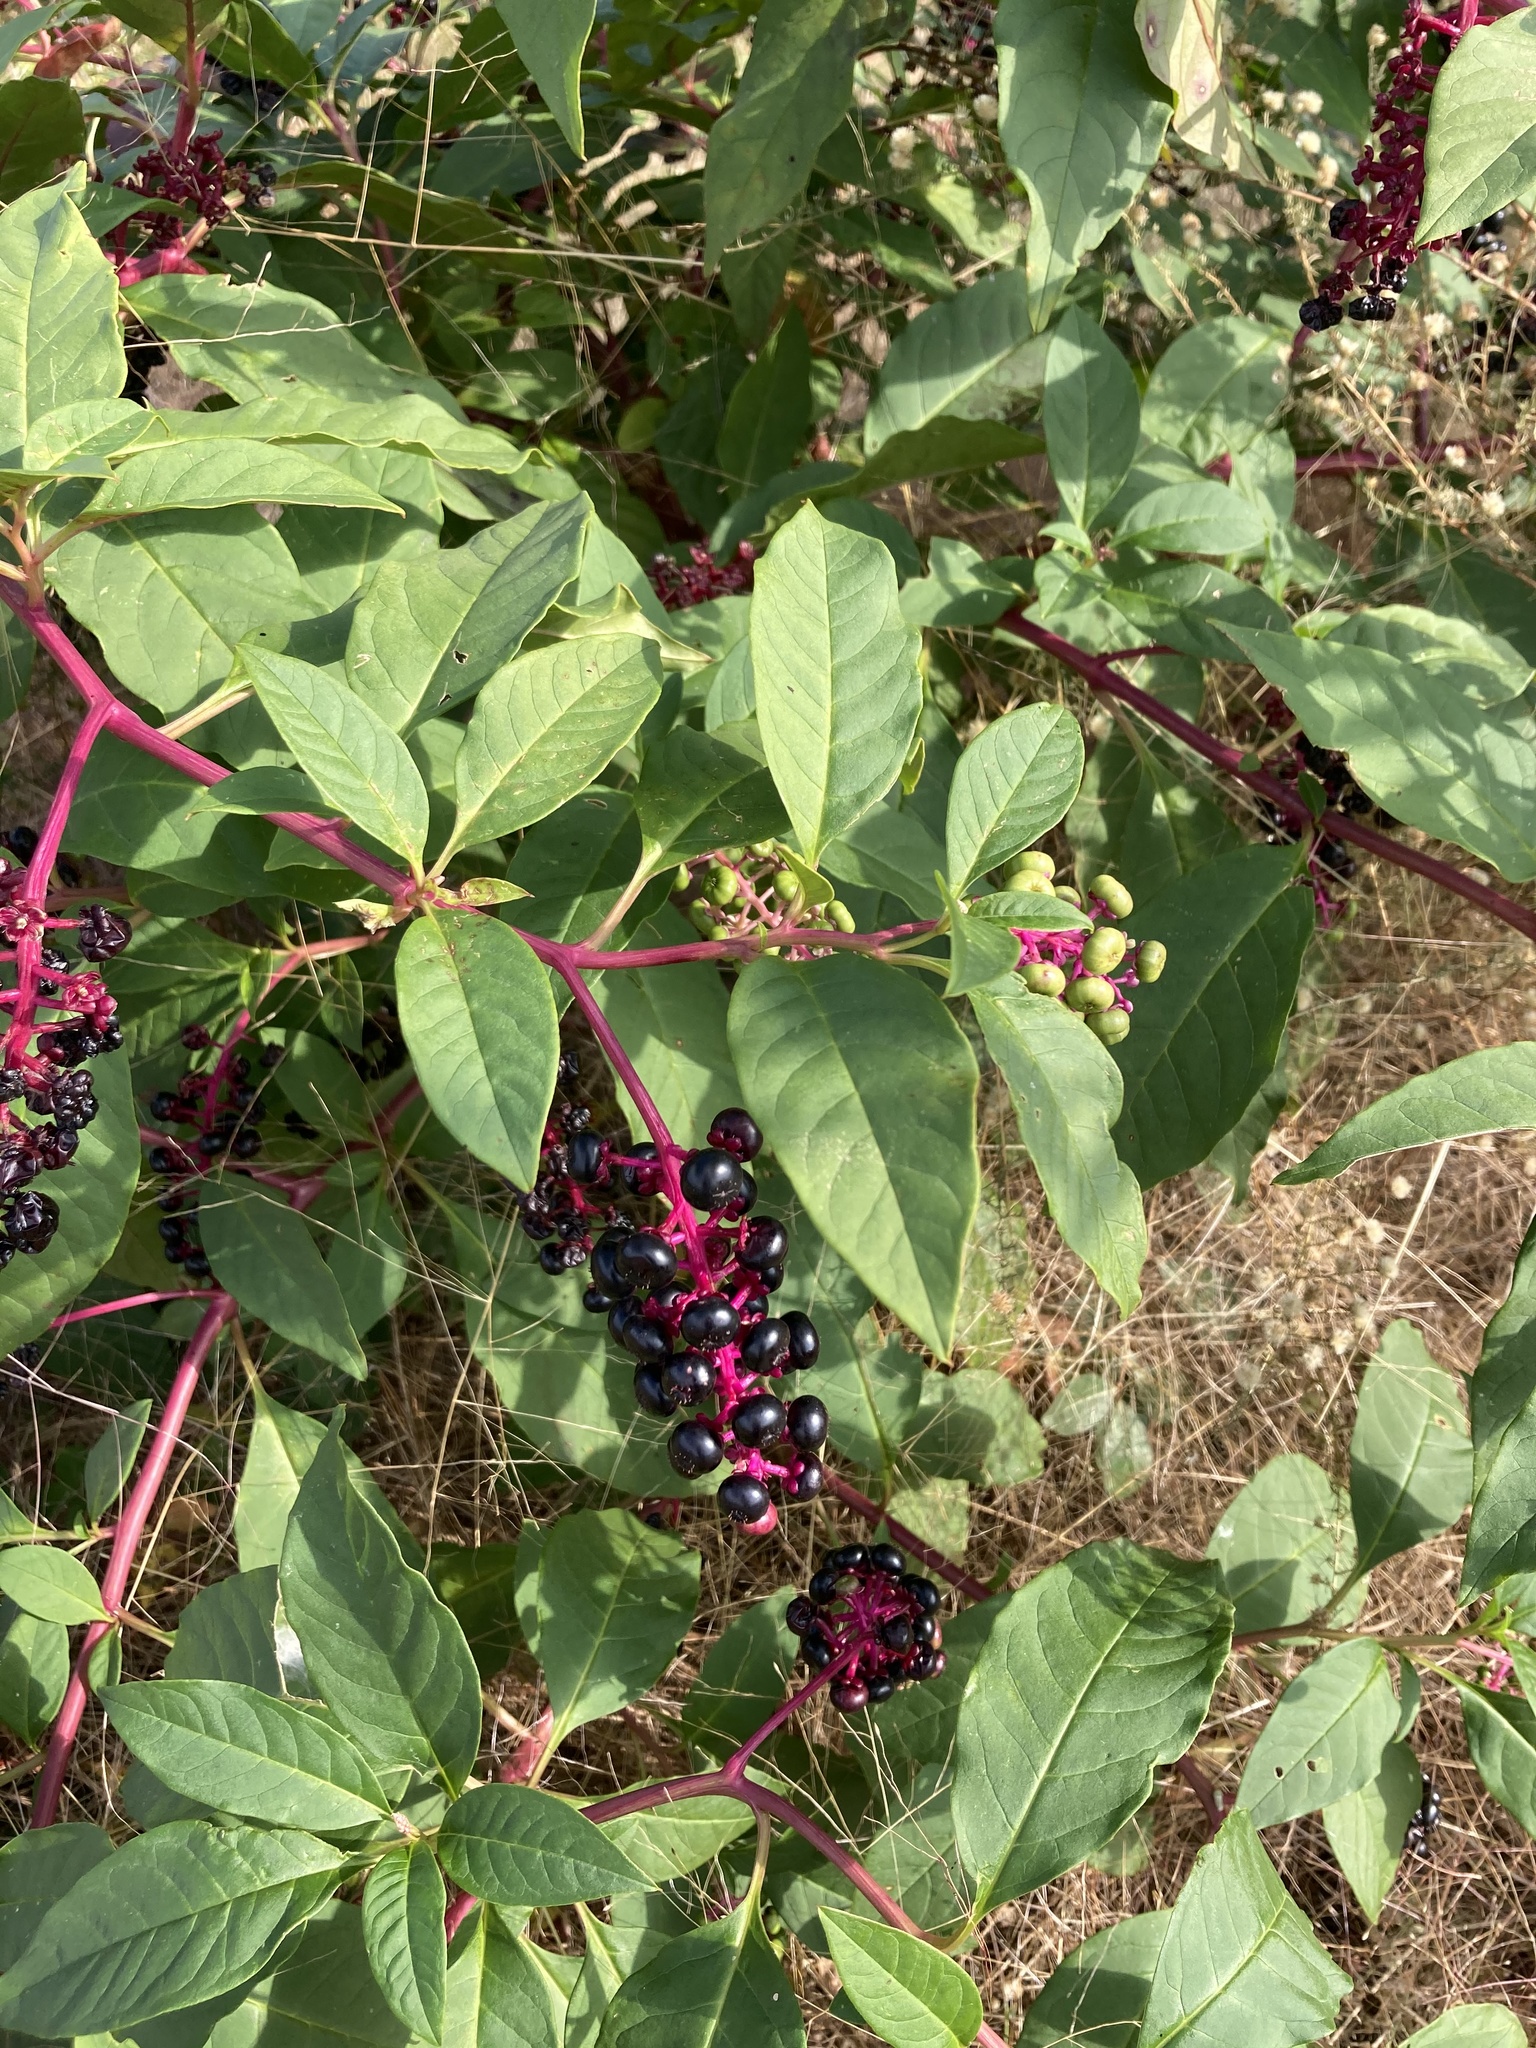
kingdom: Plantae
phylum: Tracheophyta
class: Magnoliopsida
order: Caryophyllales
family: Phytolaccaceae
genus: Phytolacca
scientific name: Phytolacca americana
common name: American pokeweed
